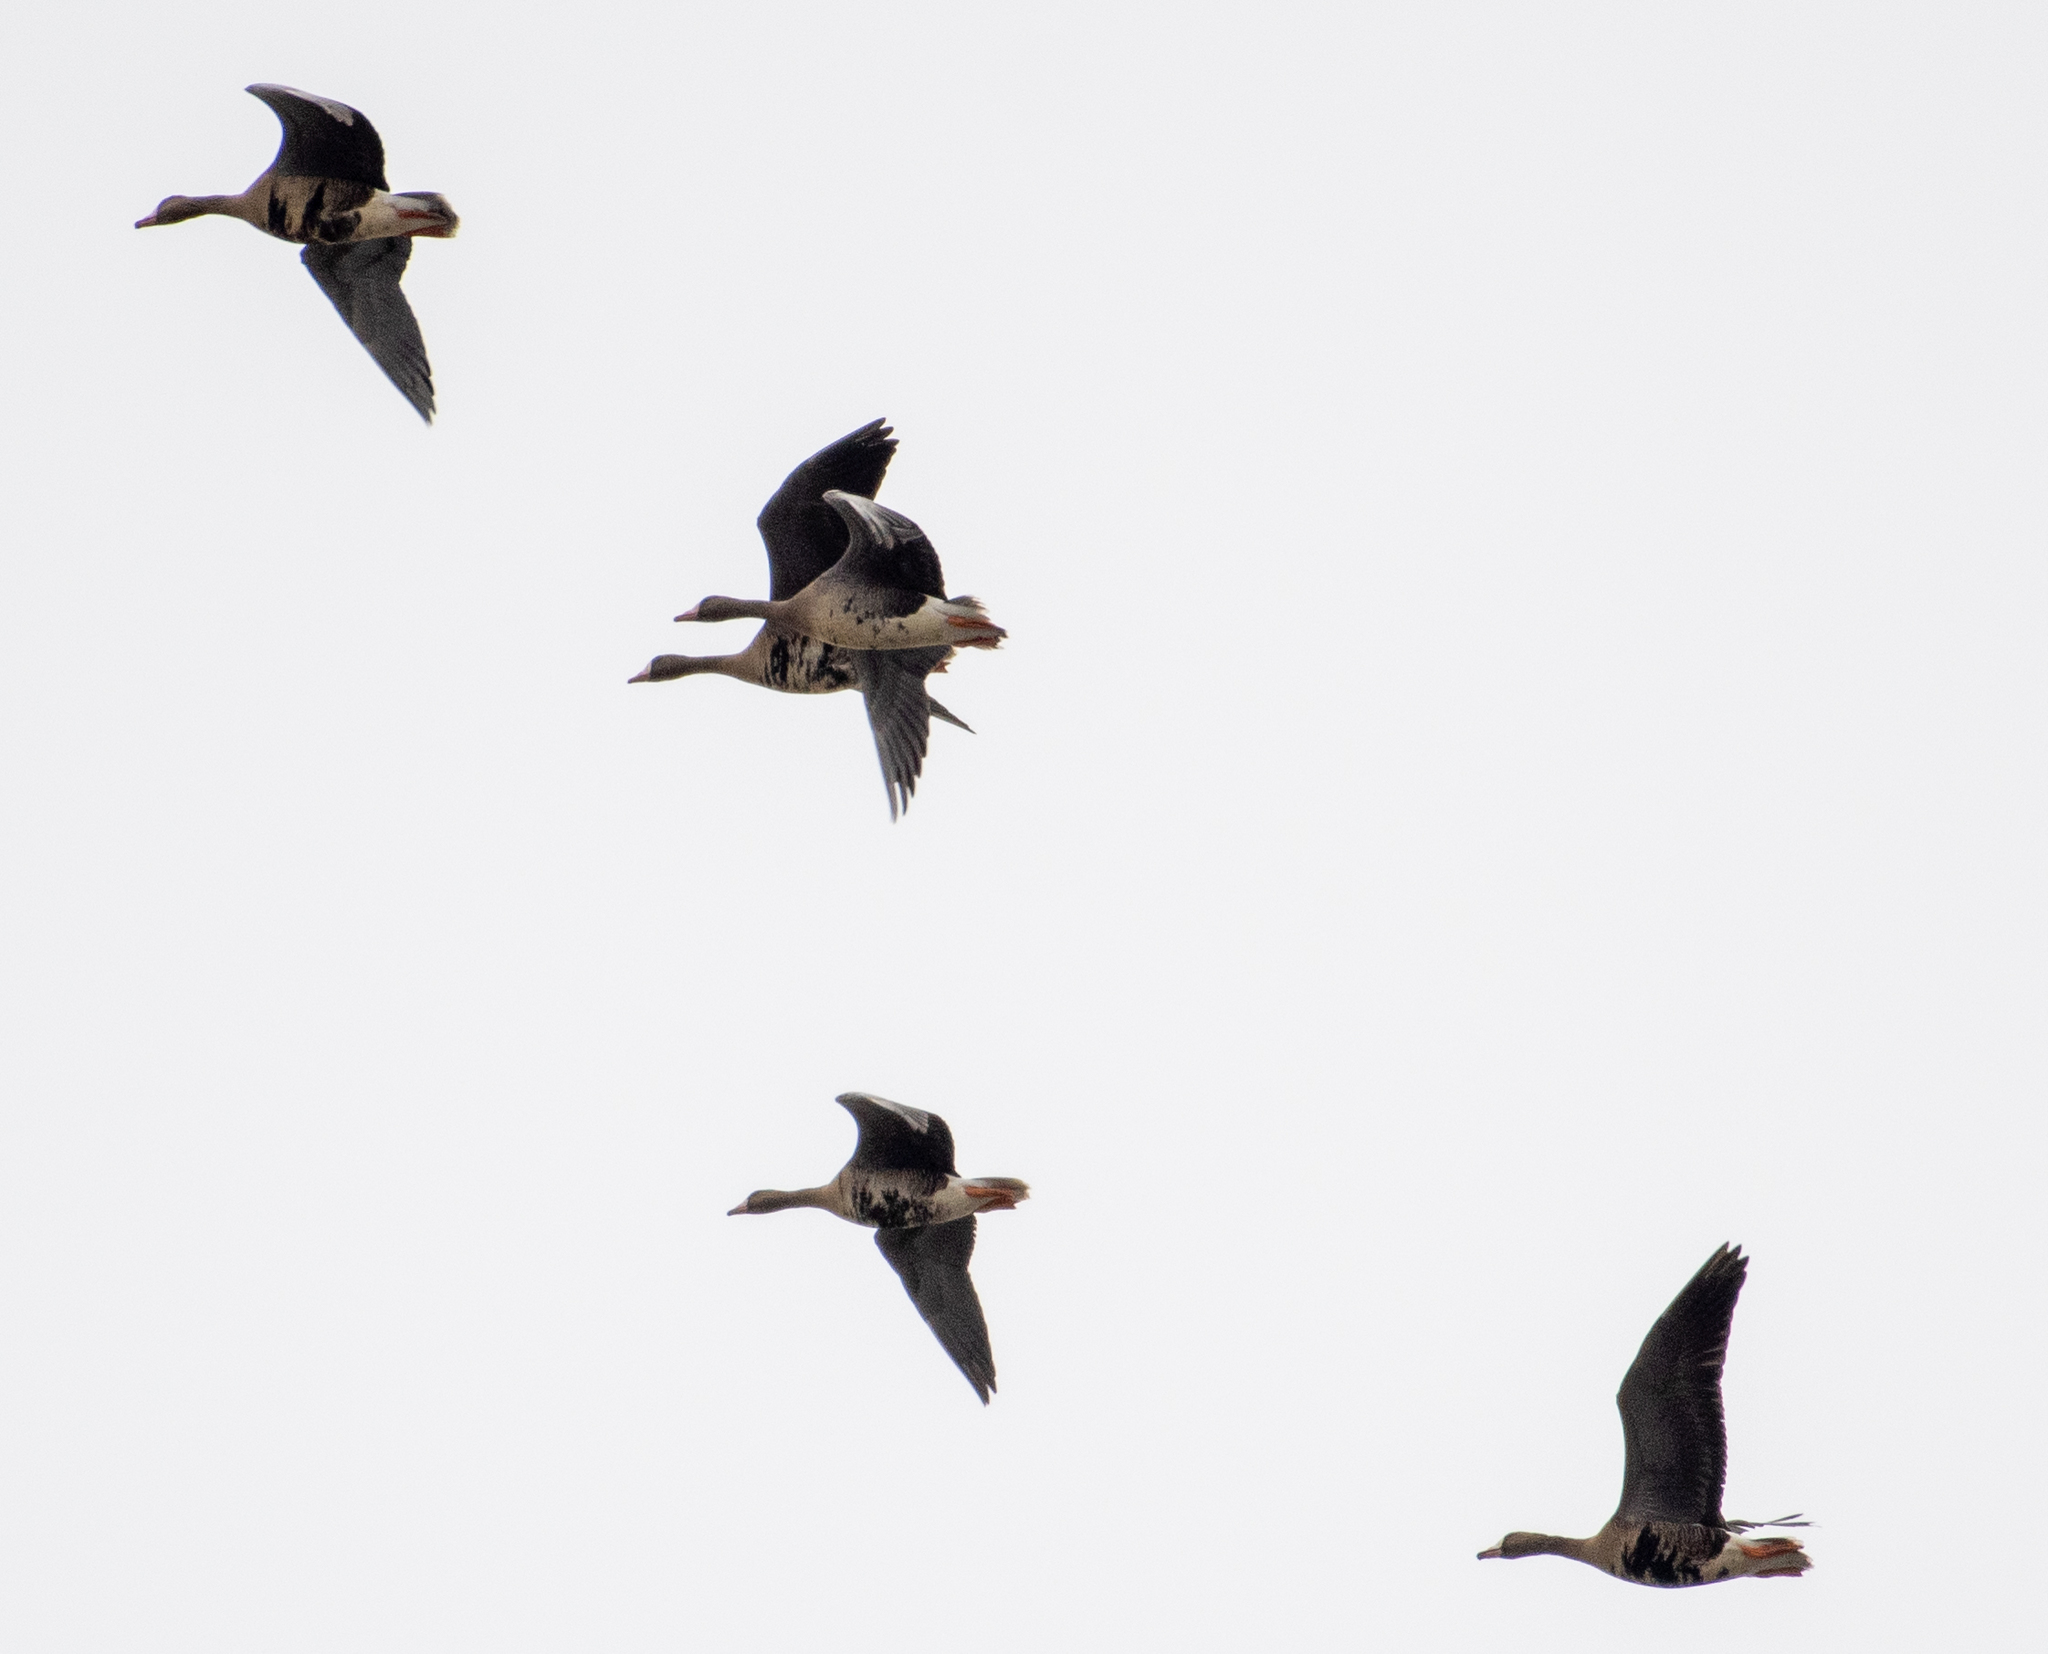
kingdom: Animalia
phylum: Chordata
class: Aves
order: Anseriformes
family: Anatidae
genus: Anser
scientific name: Anser albifrons
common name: Greater white-fronted goose
